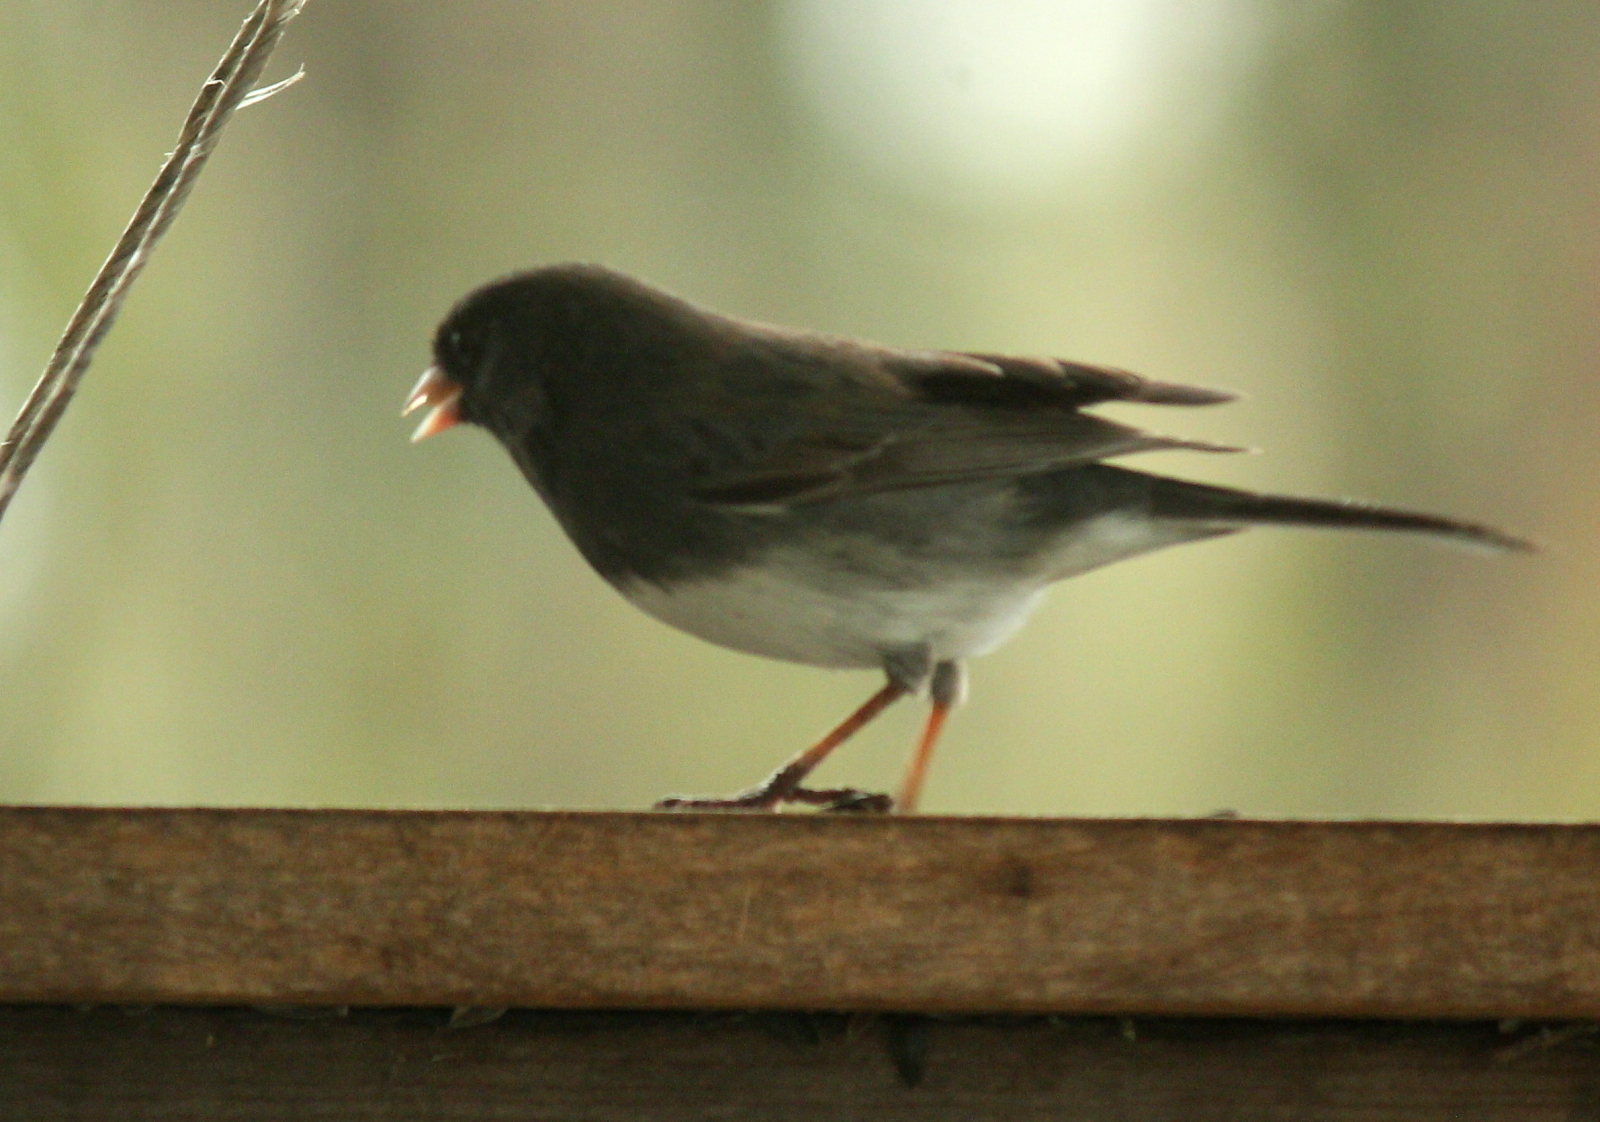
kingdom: Animalia
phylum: Chordata
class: Aves
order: Passeriformes
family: Passerellidae
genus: Junco
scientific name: Junco hyemalis
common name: Dark-eyed junco
